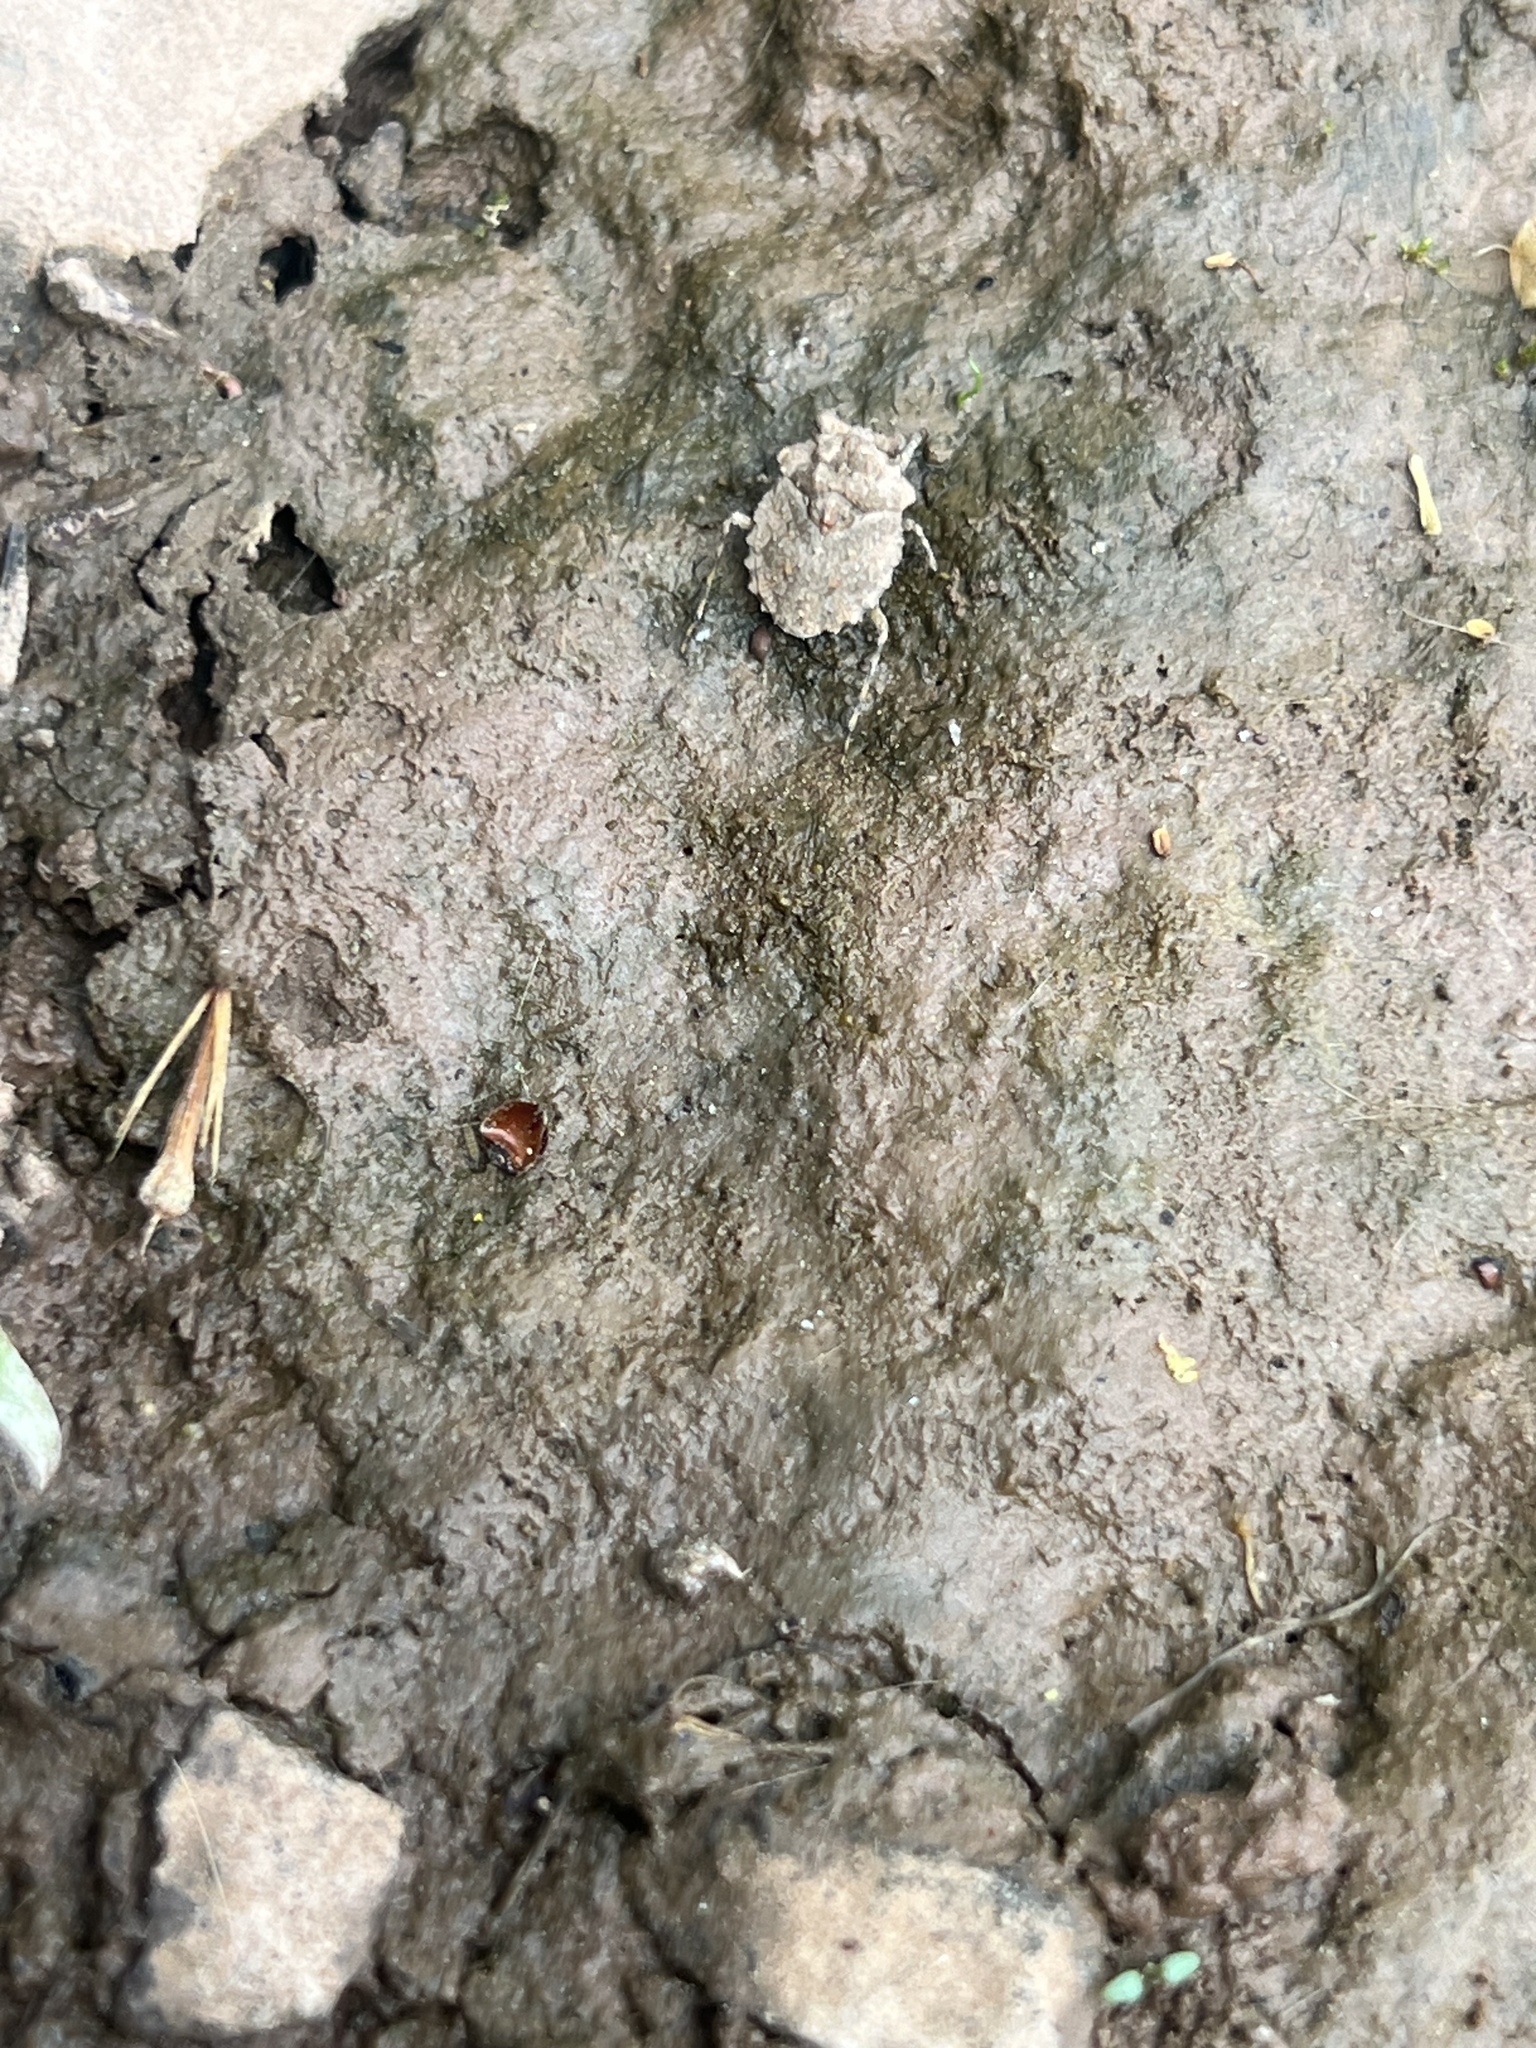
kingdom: Animalia
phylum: Arthropoda
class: Insecta
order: Hemiptera
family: Gelastocoridae
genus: Gelastocoris
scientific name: Gelastocoris oculatus
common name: Toad bug
